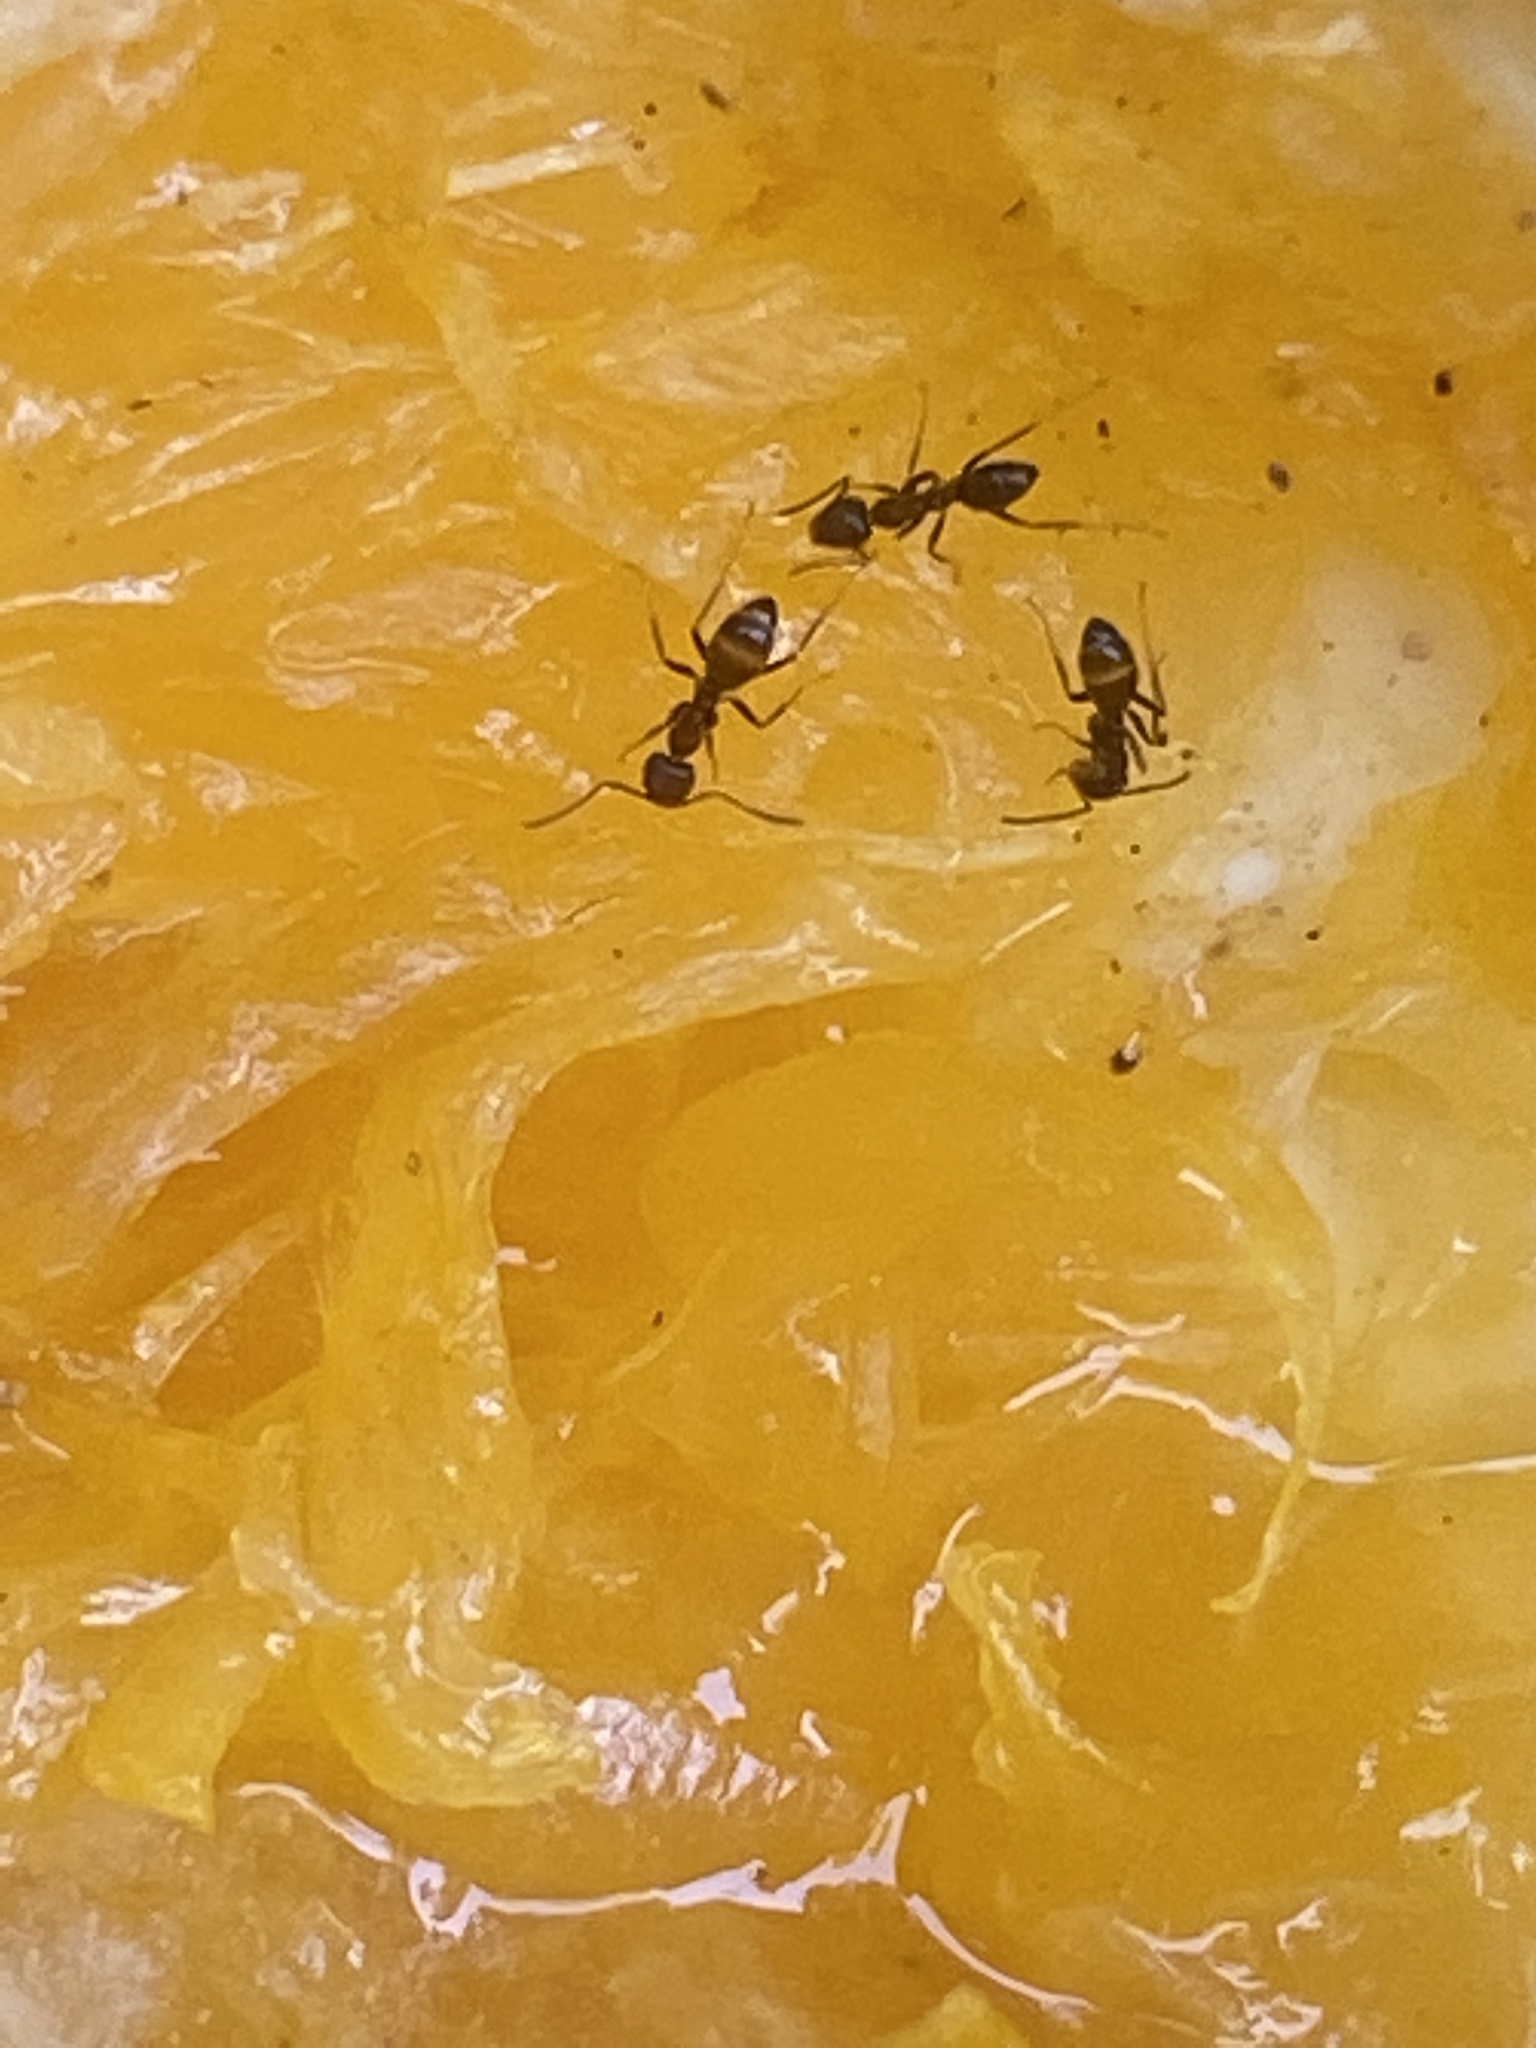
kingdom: Animalia
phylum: Arthropoda
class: Insecta
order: Hymenoptera
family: Formicidae
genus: Linepithema
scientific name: Linepithema humile
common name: Argentine ant
